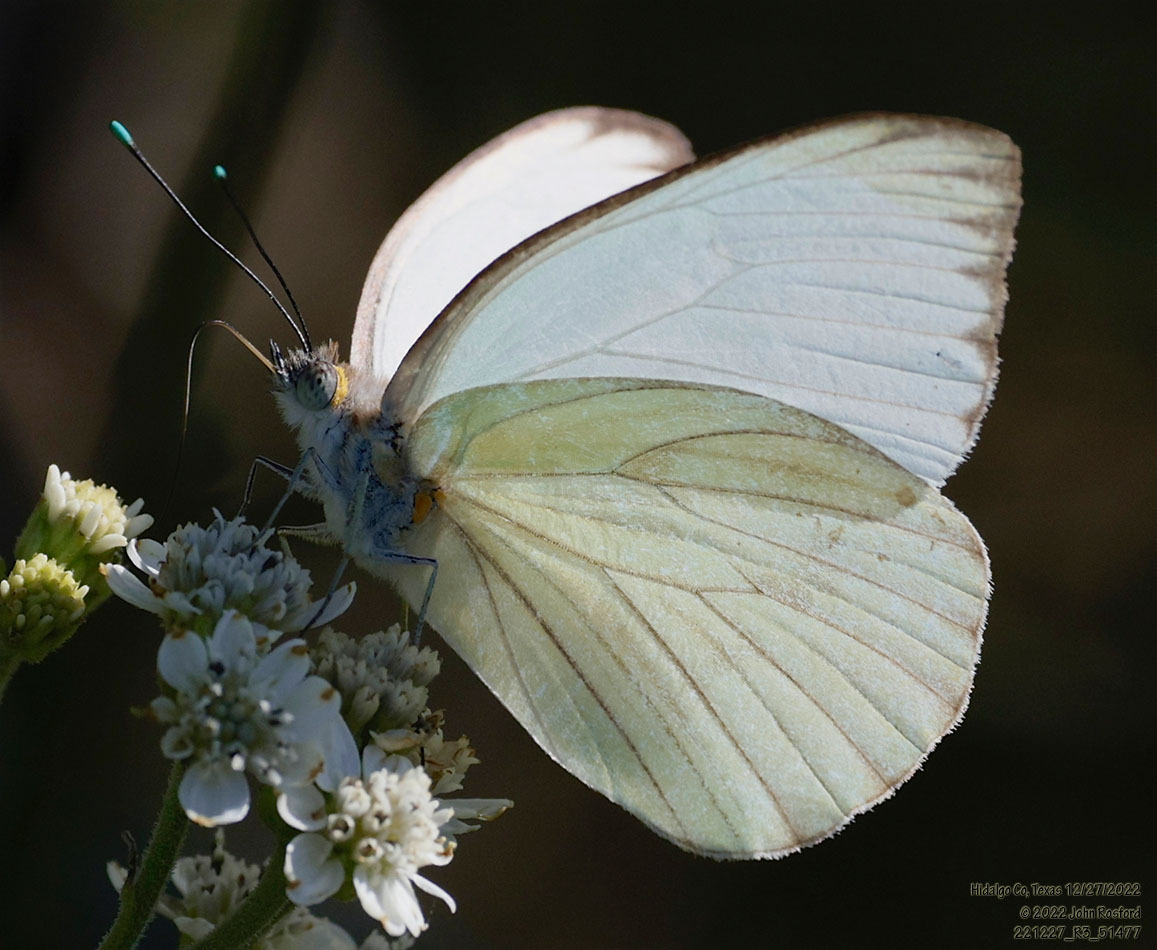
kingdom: Animalia
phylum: Arthropoda
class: Insecta
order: Lepidoptera
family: Pieridae
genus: Ascia
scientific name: Ascia monuste
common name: Great southern white
